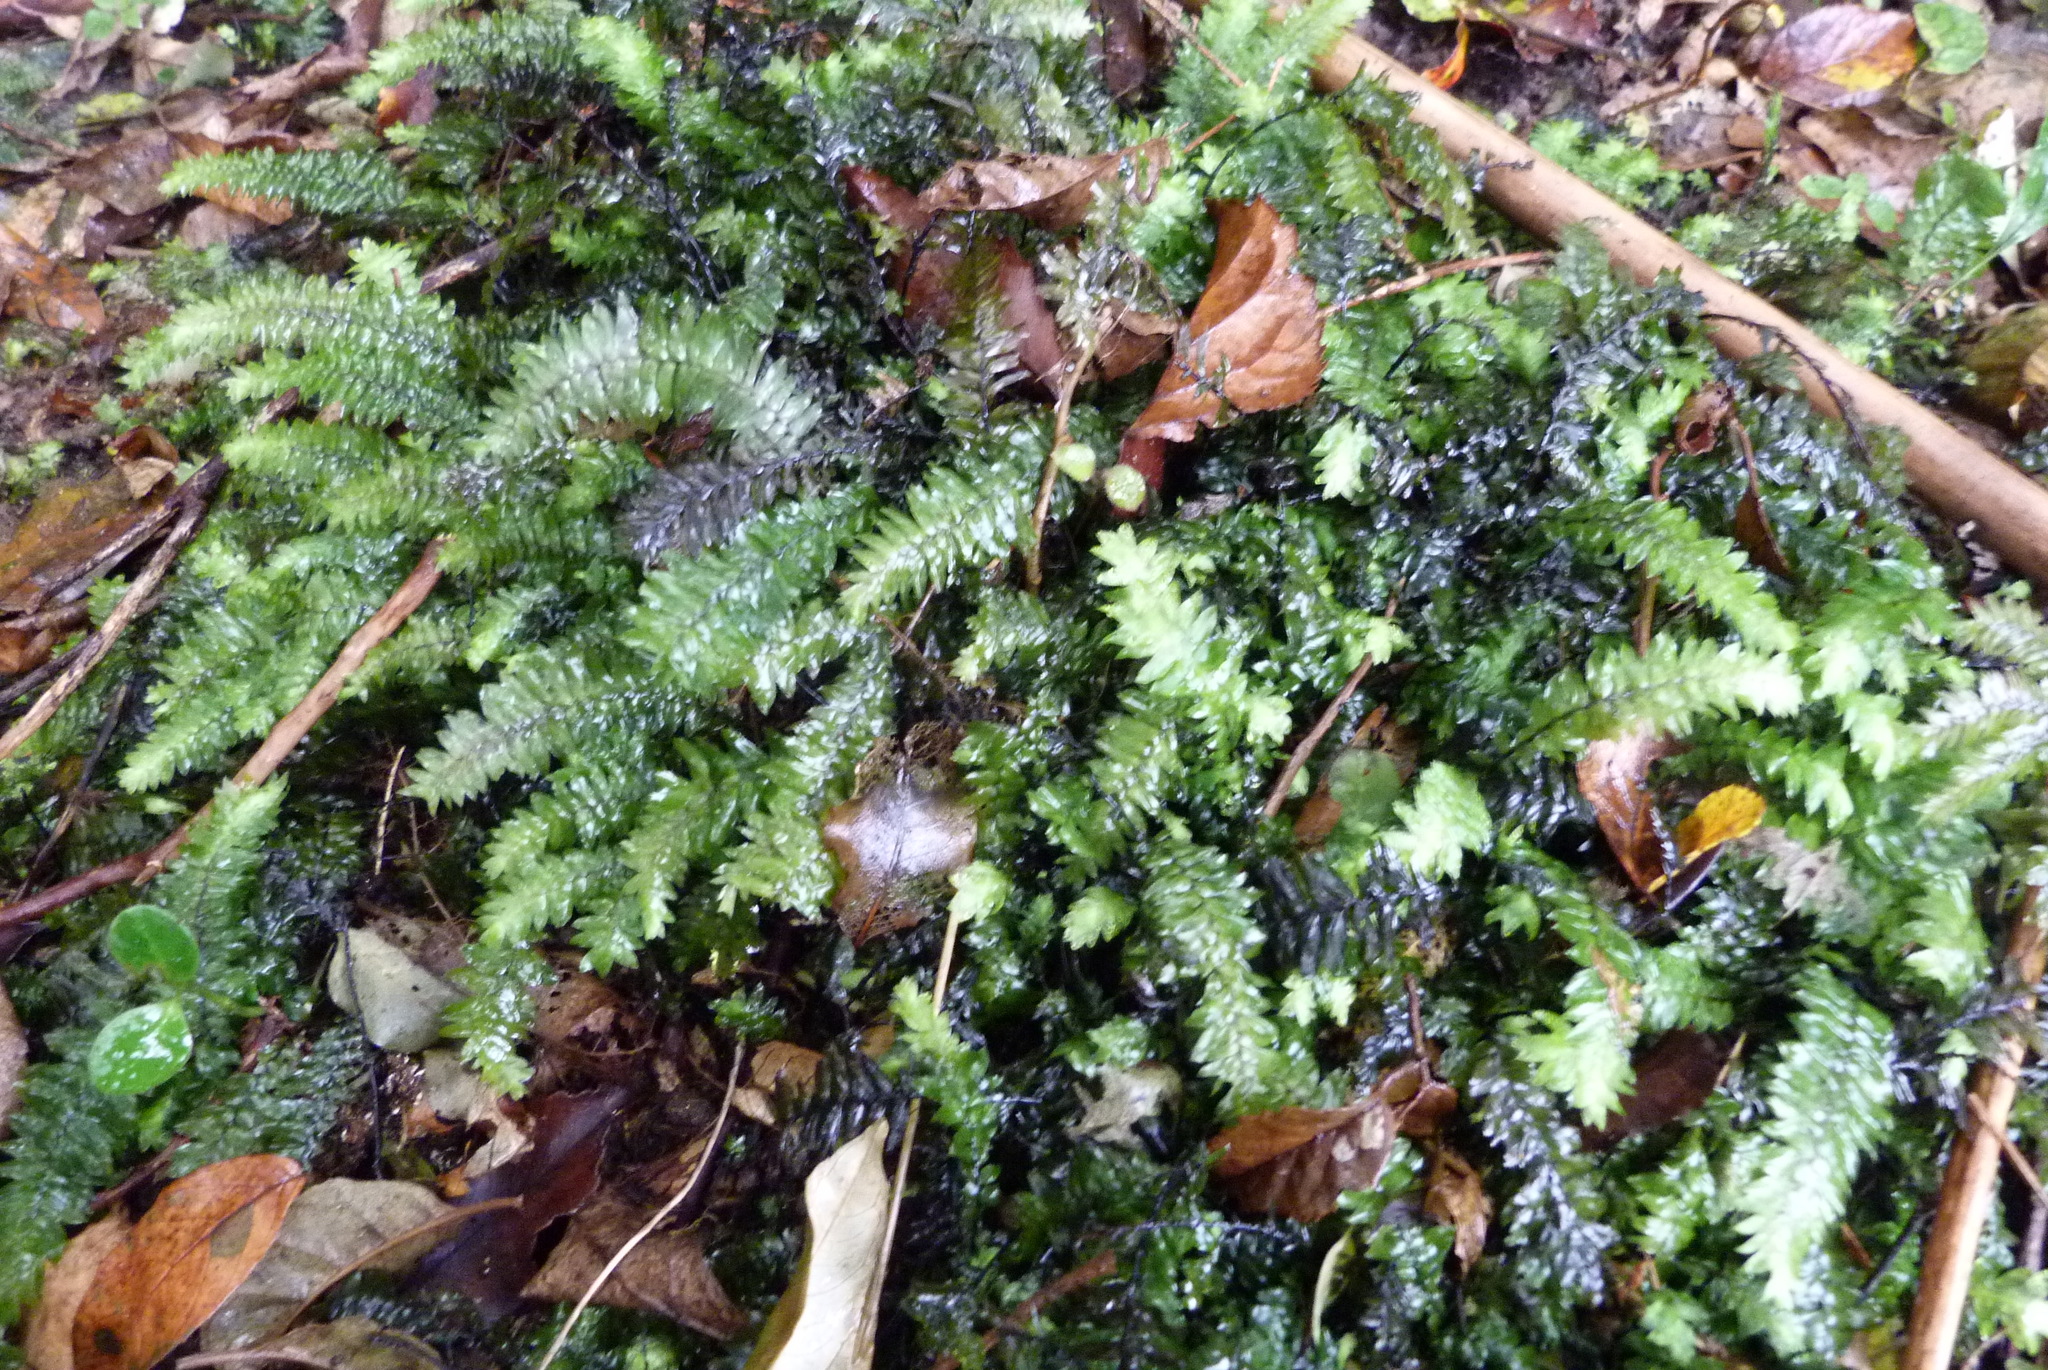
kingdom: Plantae
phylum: Bryophyta
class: Bryopsida
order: Hypopterygiales
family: Hypopterygiaceae
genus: Cyathophorum
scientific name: Cyathophorum bulbosum
